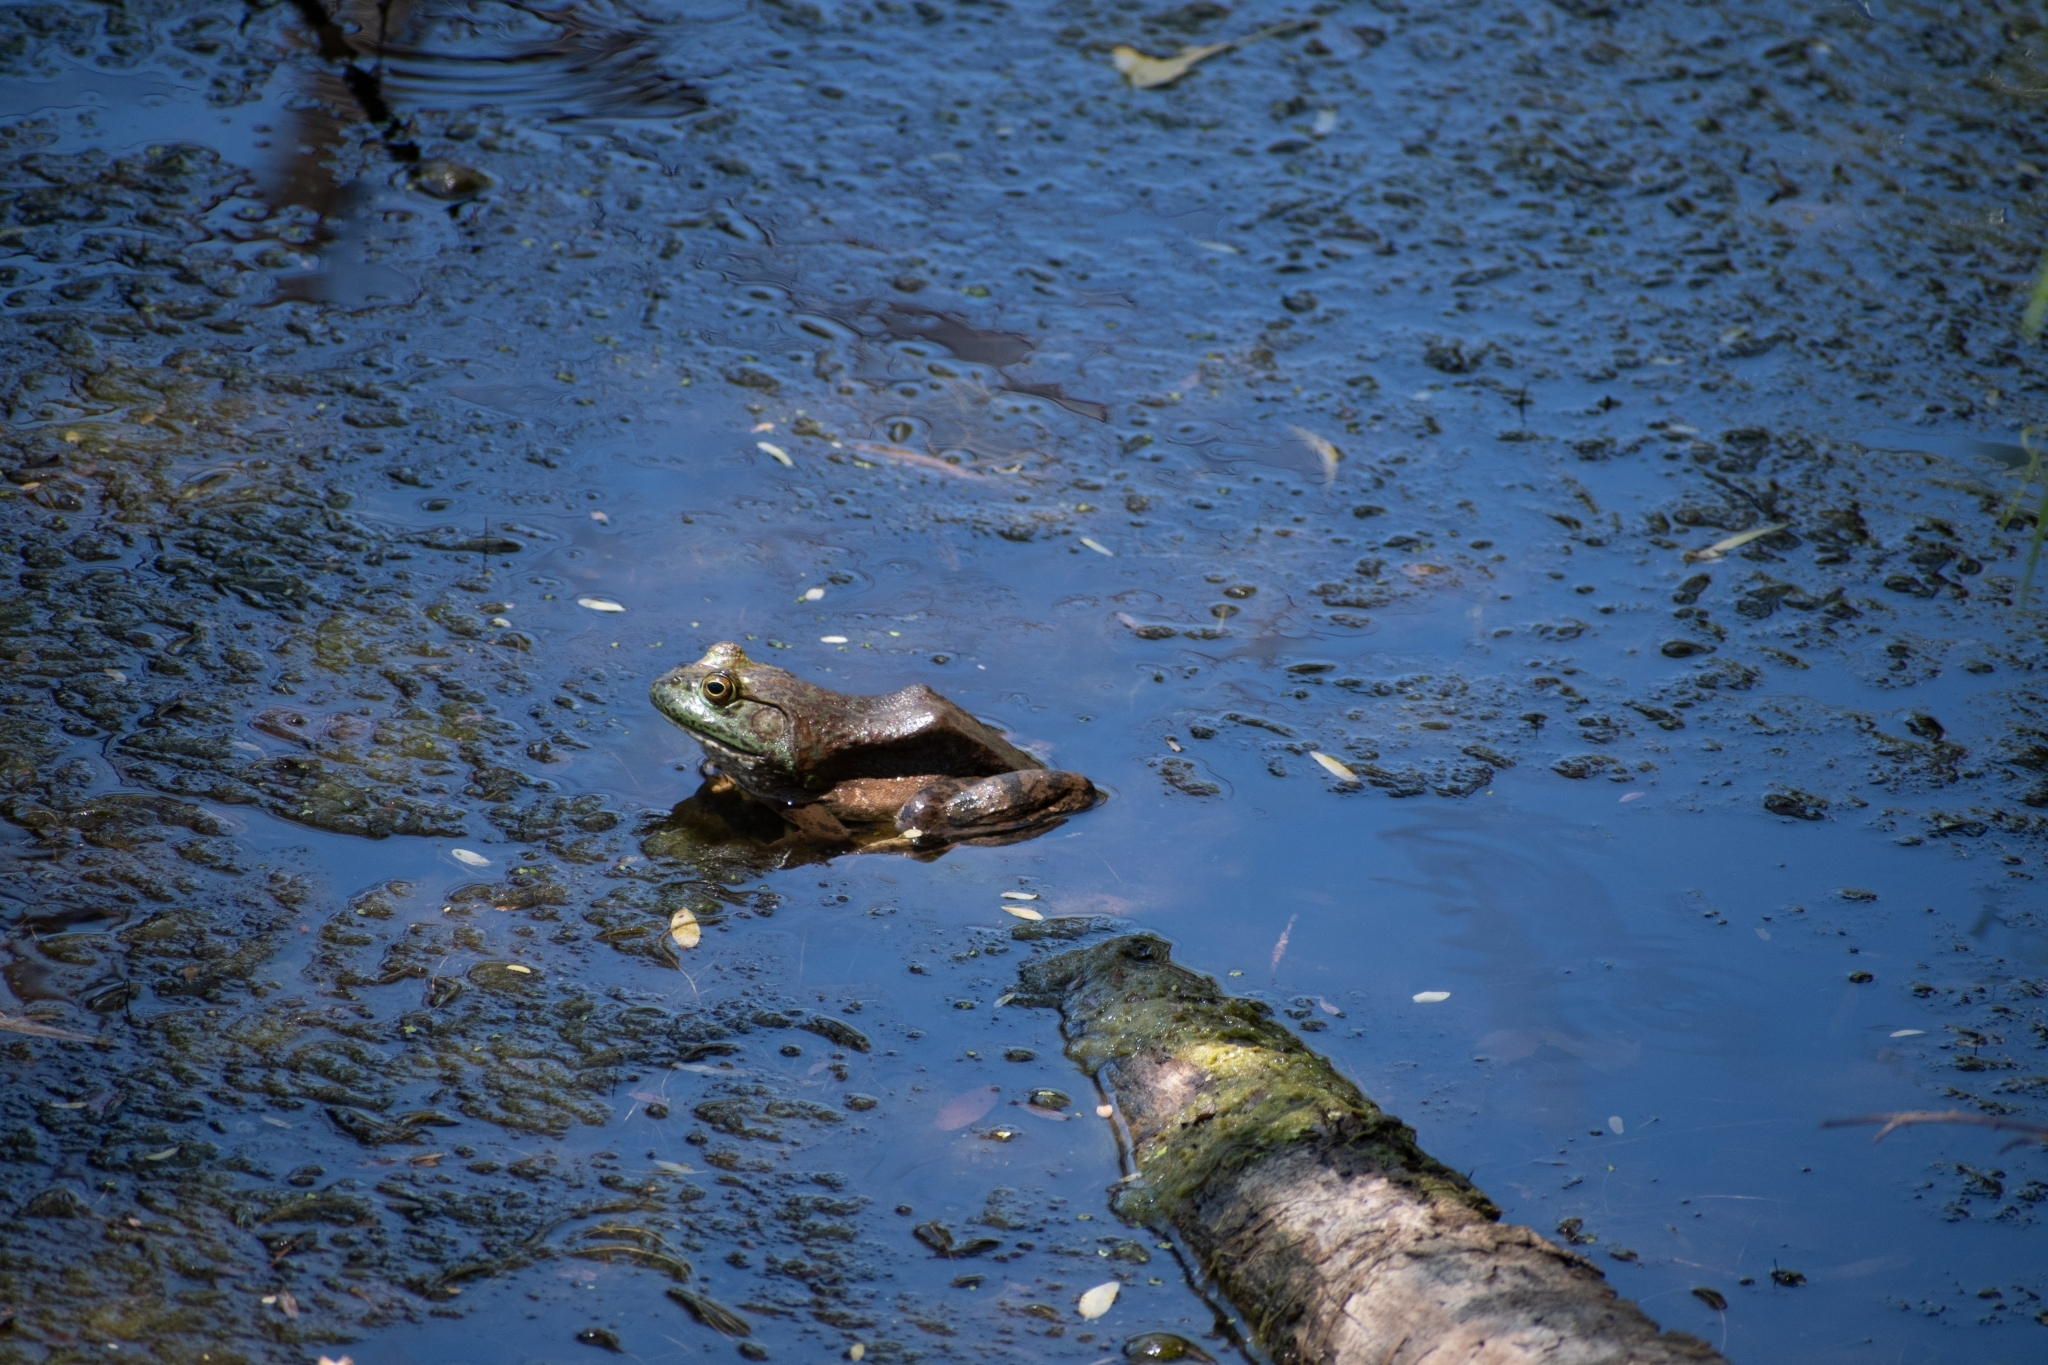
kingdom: Animalia
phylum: Chordata
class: Amphibia
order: Anura
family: Ranidae
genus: Lithobates
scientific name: Lithobates catesbeianus
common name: American bullfrog
